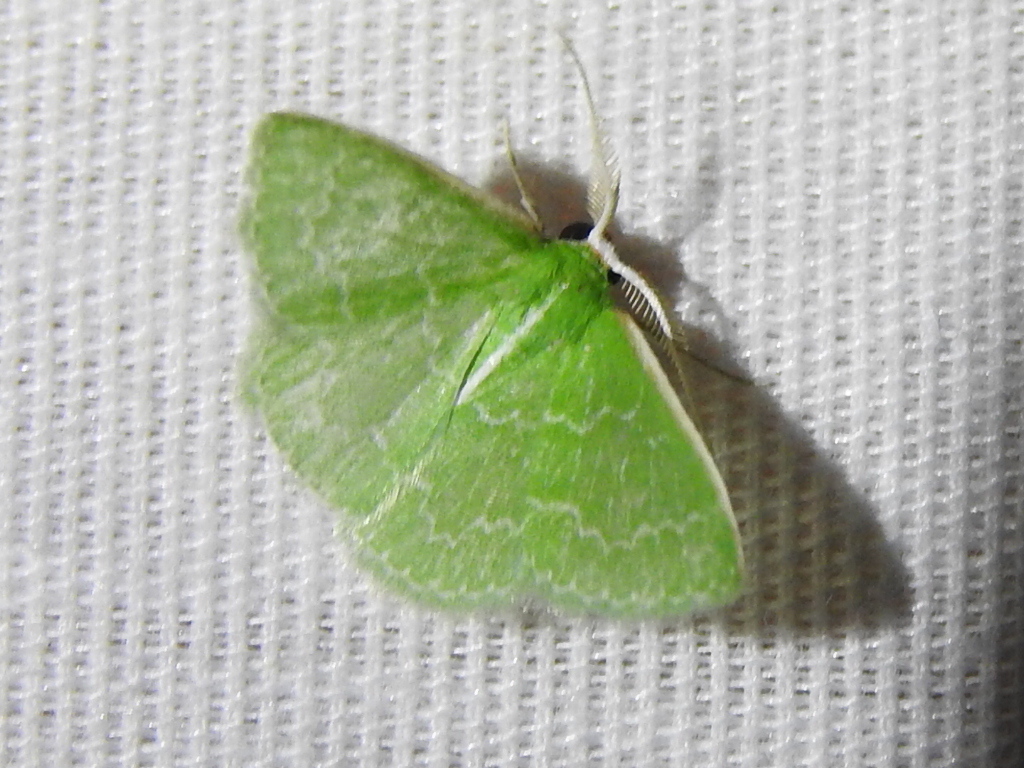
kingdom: Animalia
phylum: Arthropoda
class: Insecta
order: Lepidoptera
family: Geometridae
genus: Synchlora
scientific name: Synchlora frondaria
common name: Southern emerald
